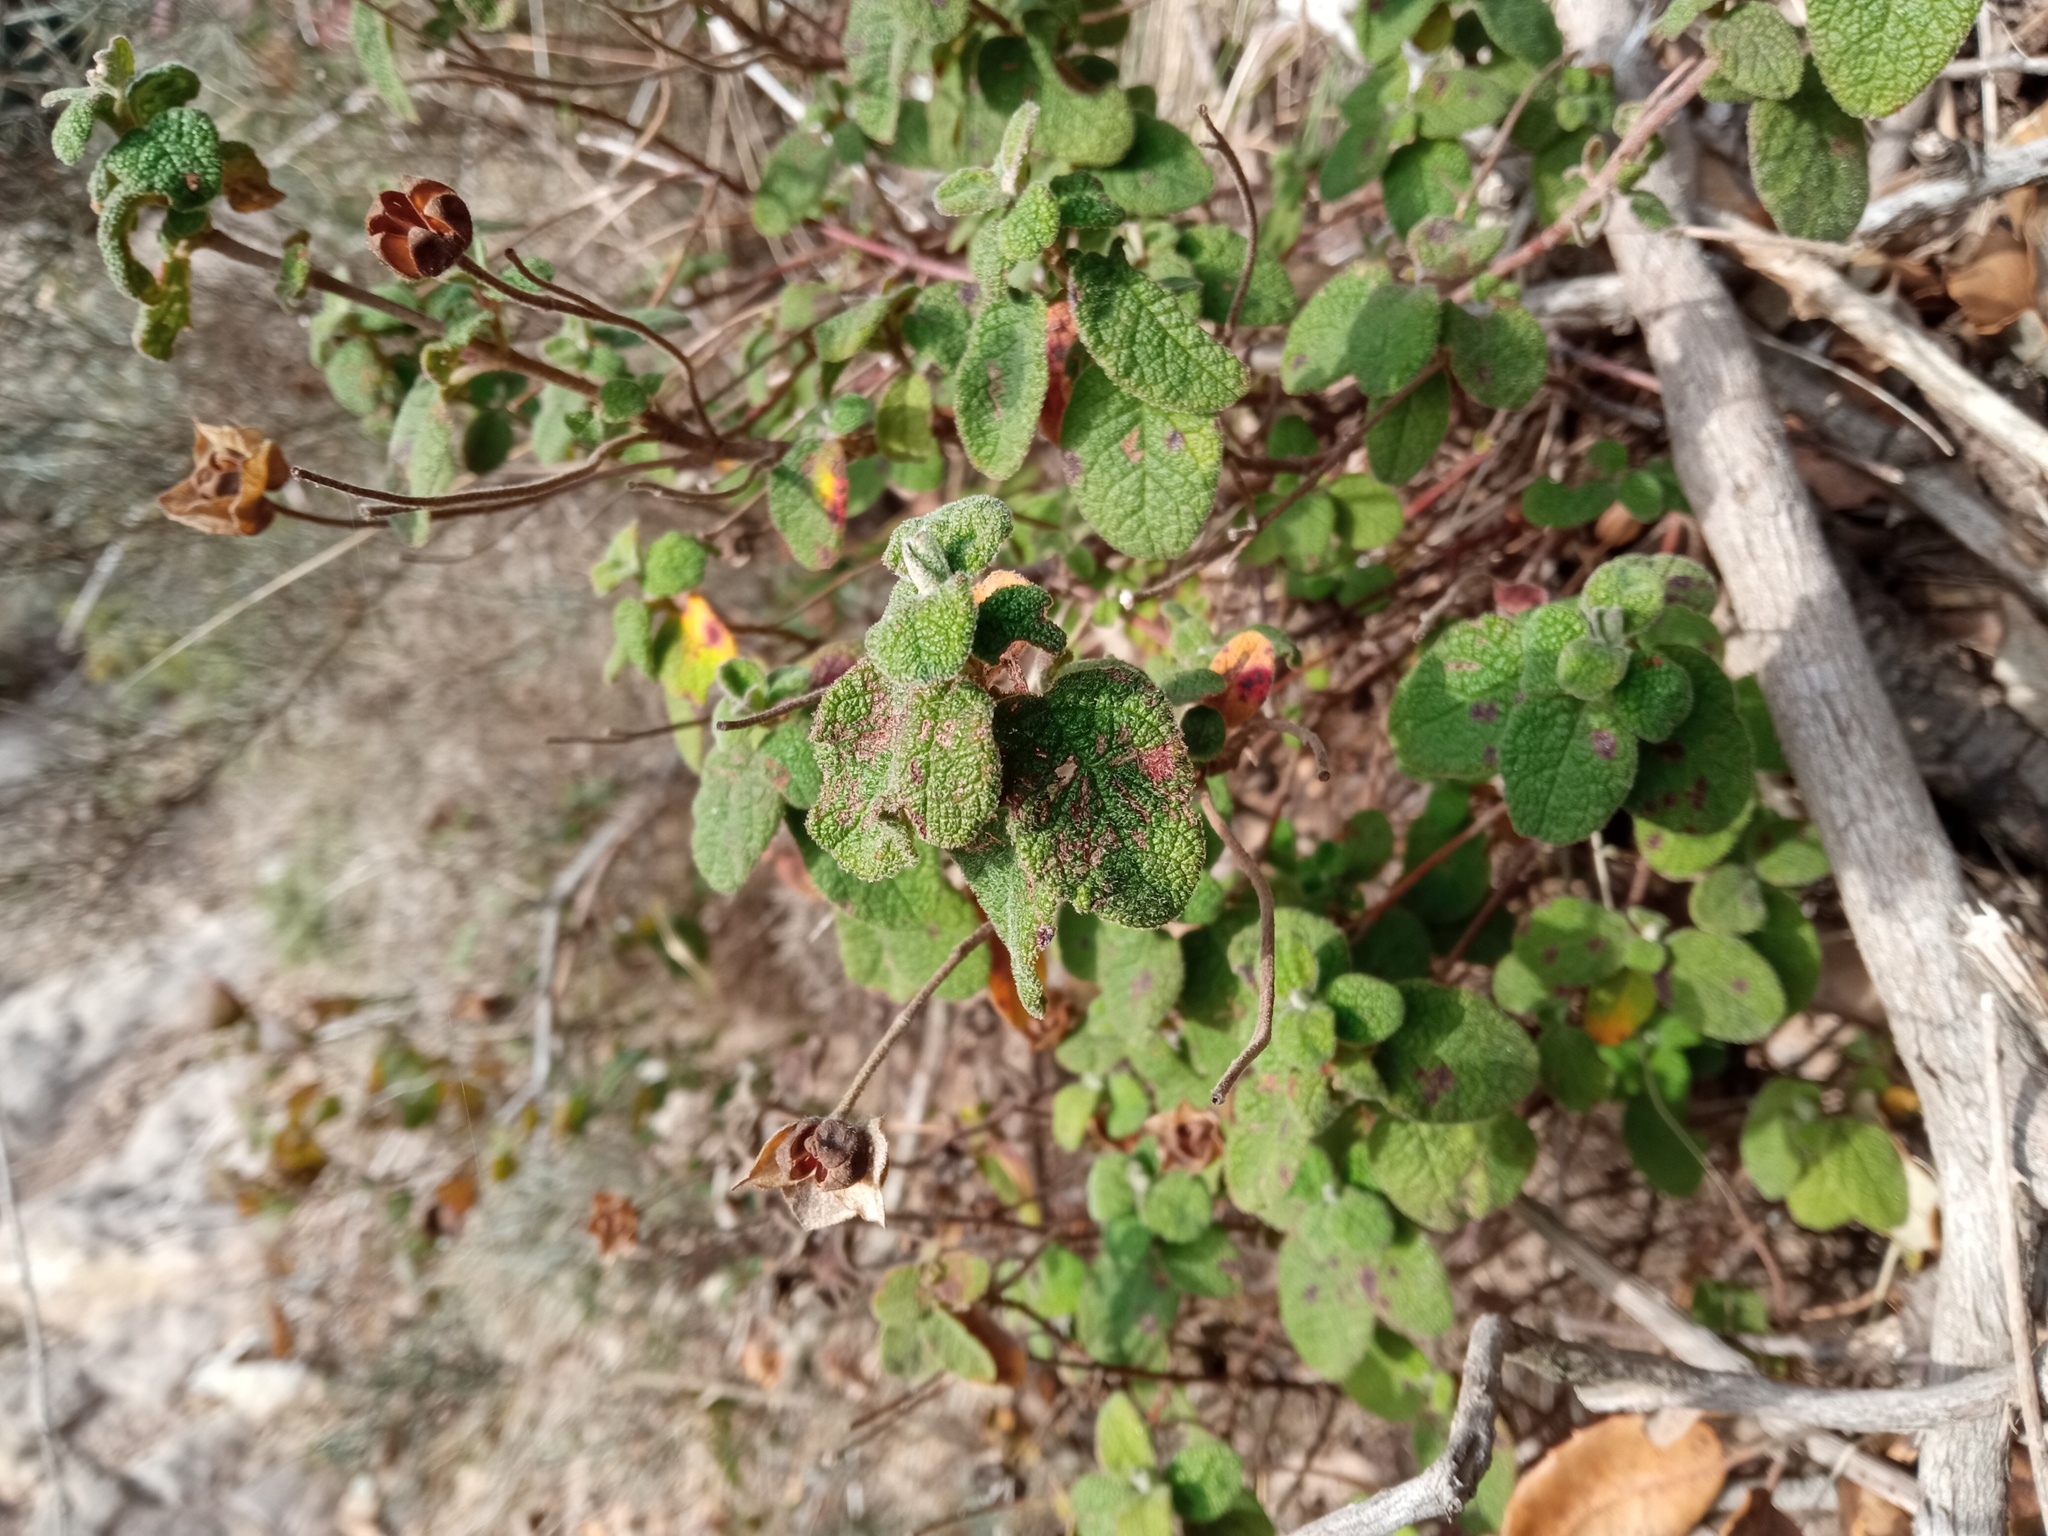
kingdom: Plantae
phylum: Tracheophyta
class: Magnoliopsida
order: Malvales
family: Cistaceae
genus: Cistus
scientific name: Cistus salviifolius
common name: Salvia cistus
